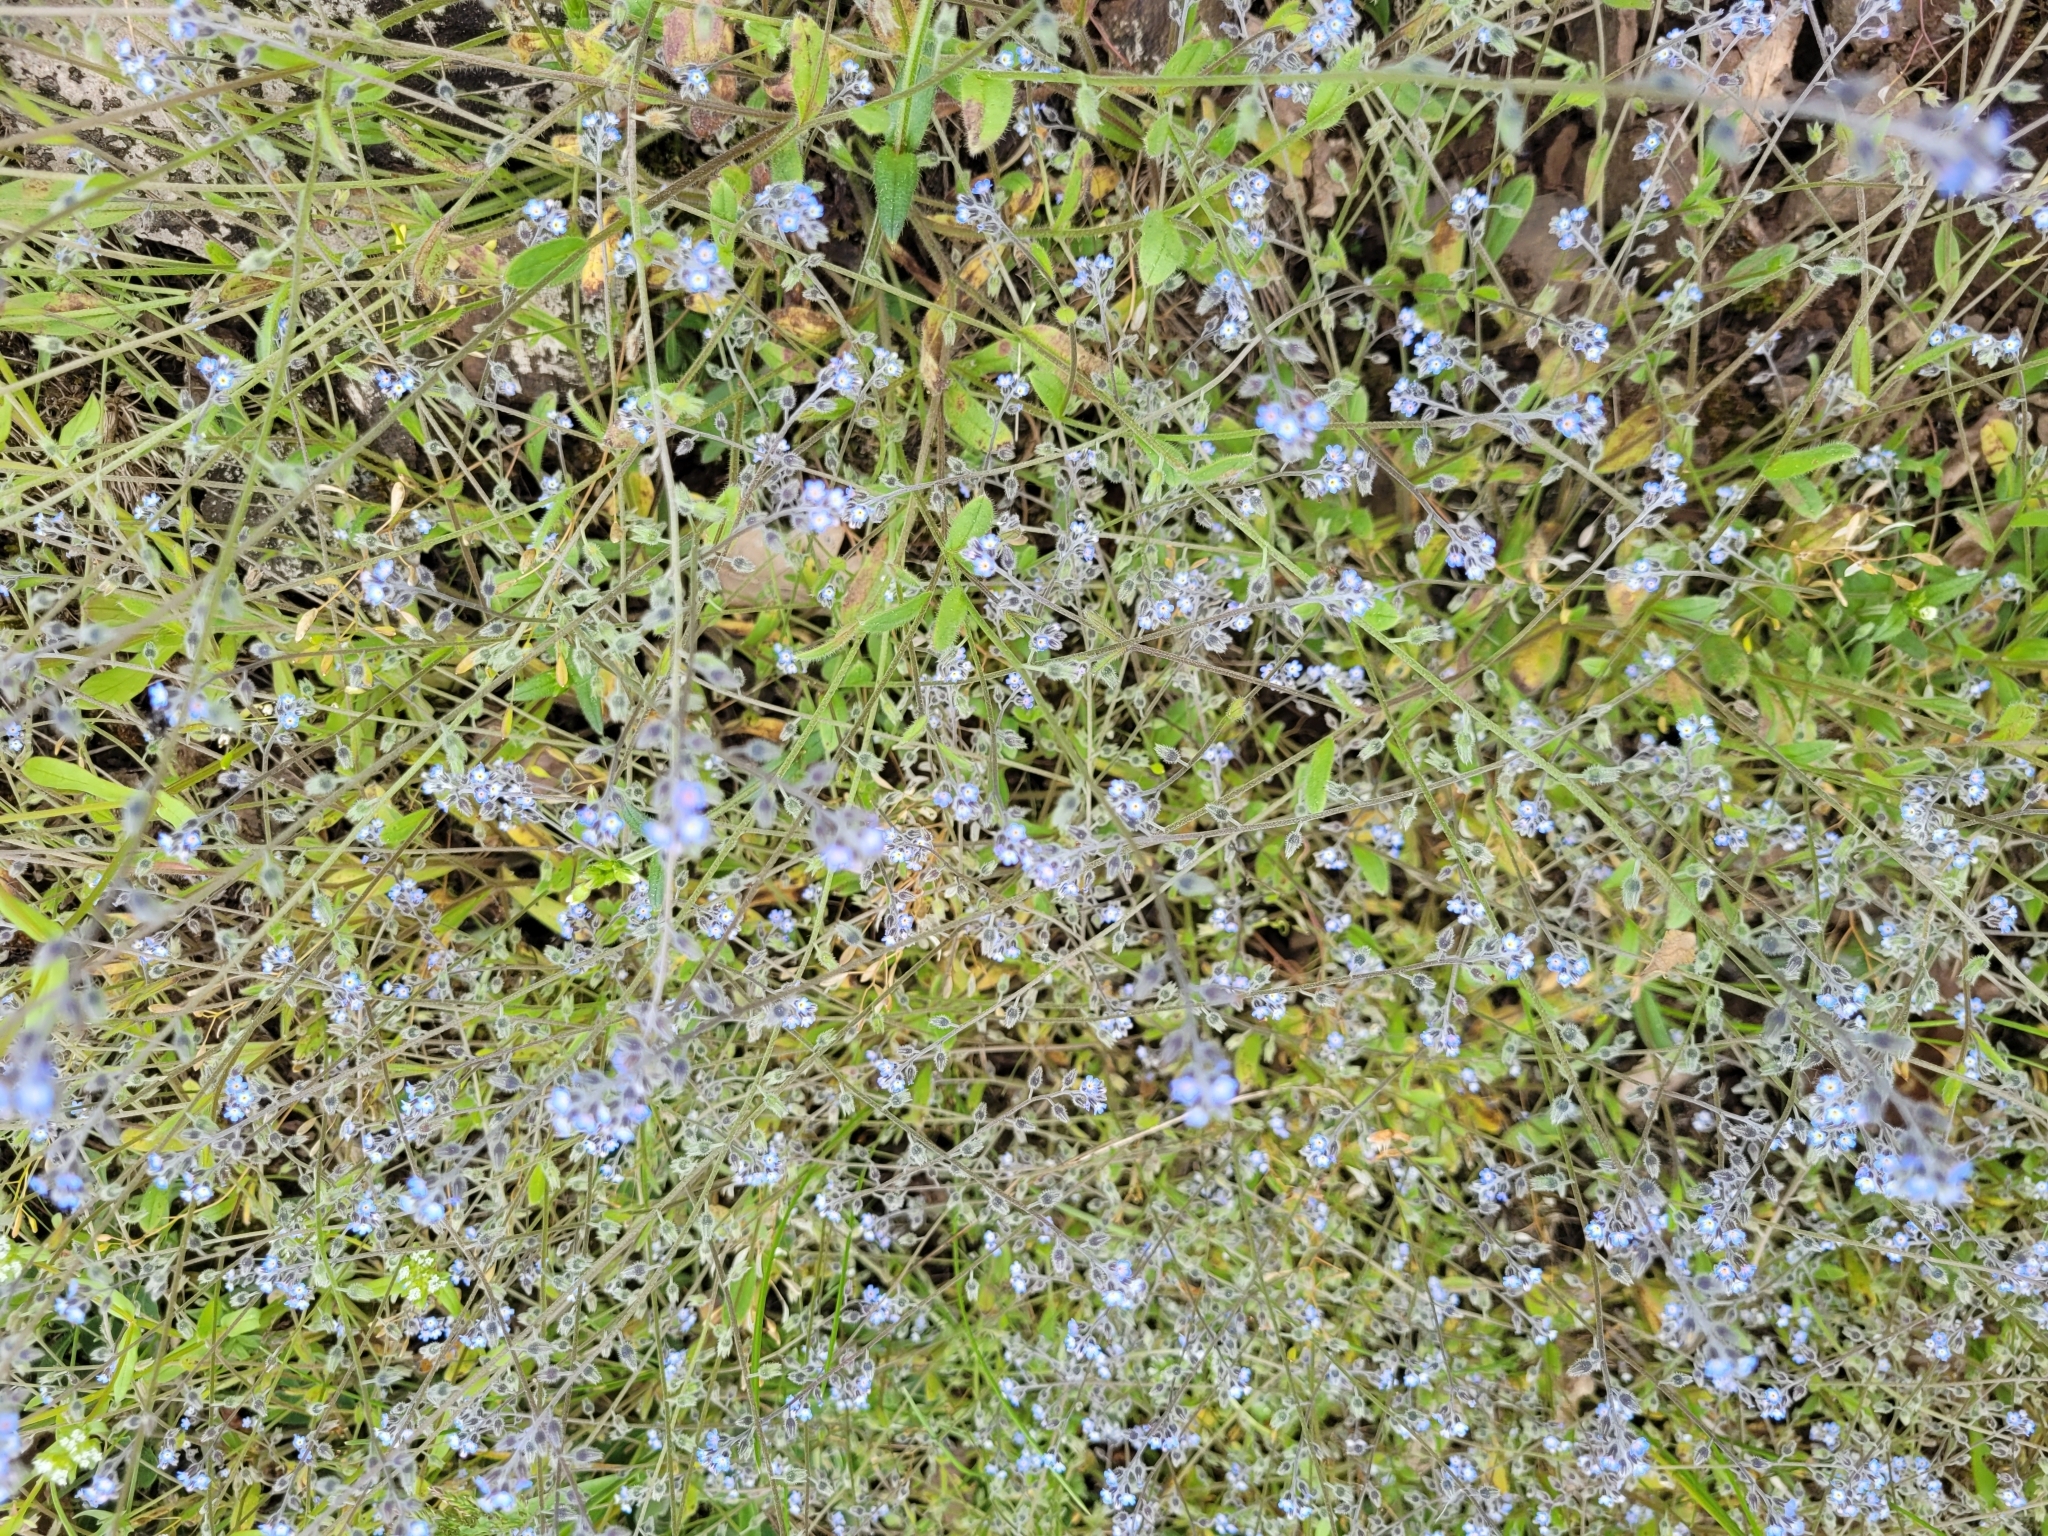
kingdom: Plantae
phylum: Tracheophyta
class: Magnoliopsida
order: Boraginales
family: Boraginaceae
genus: Myosotis
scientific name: Myosotis ramosissima
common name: Early forget-me-not
